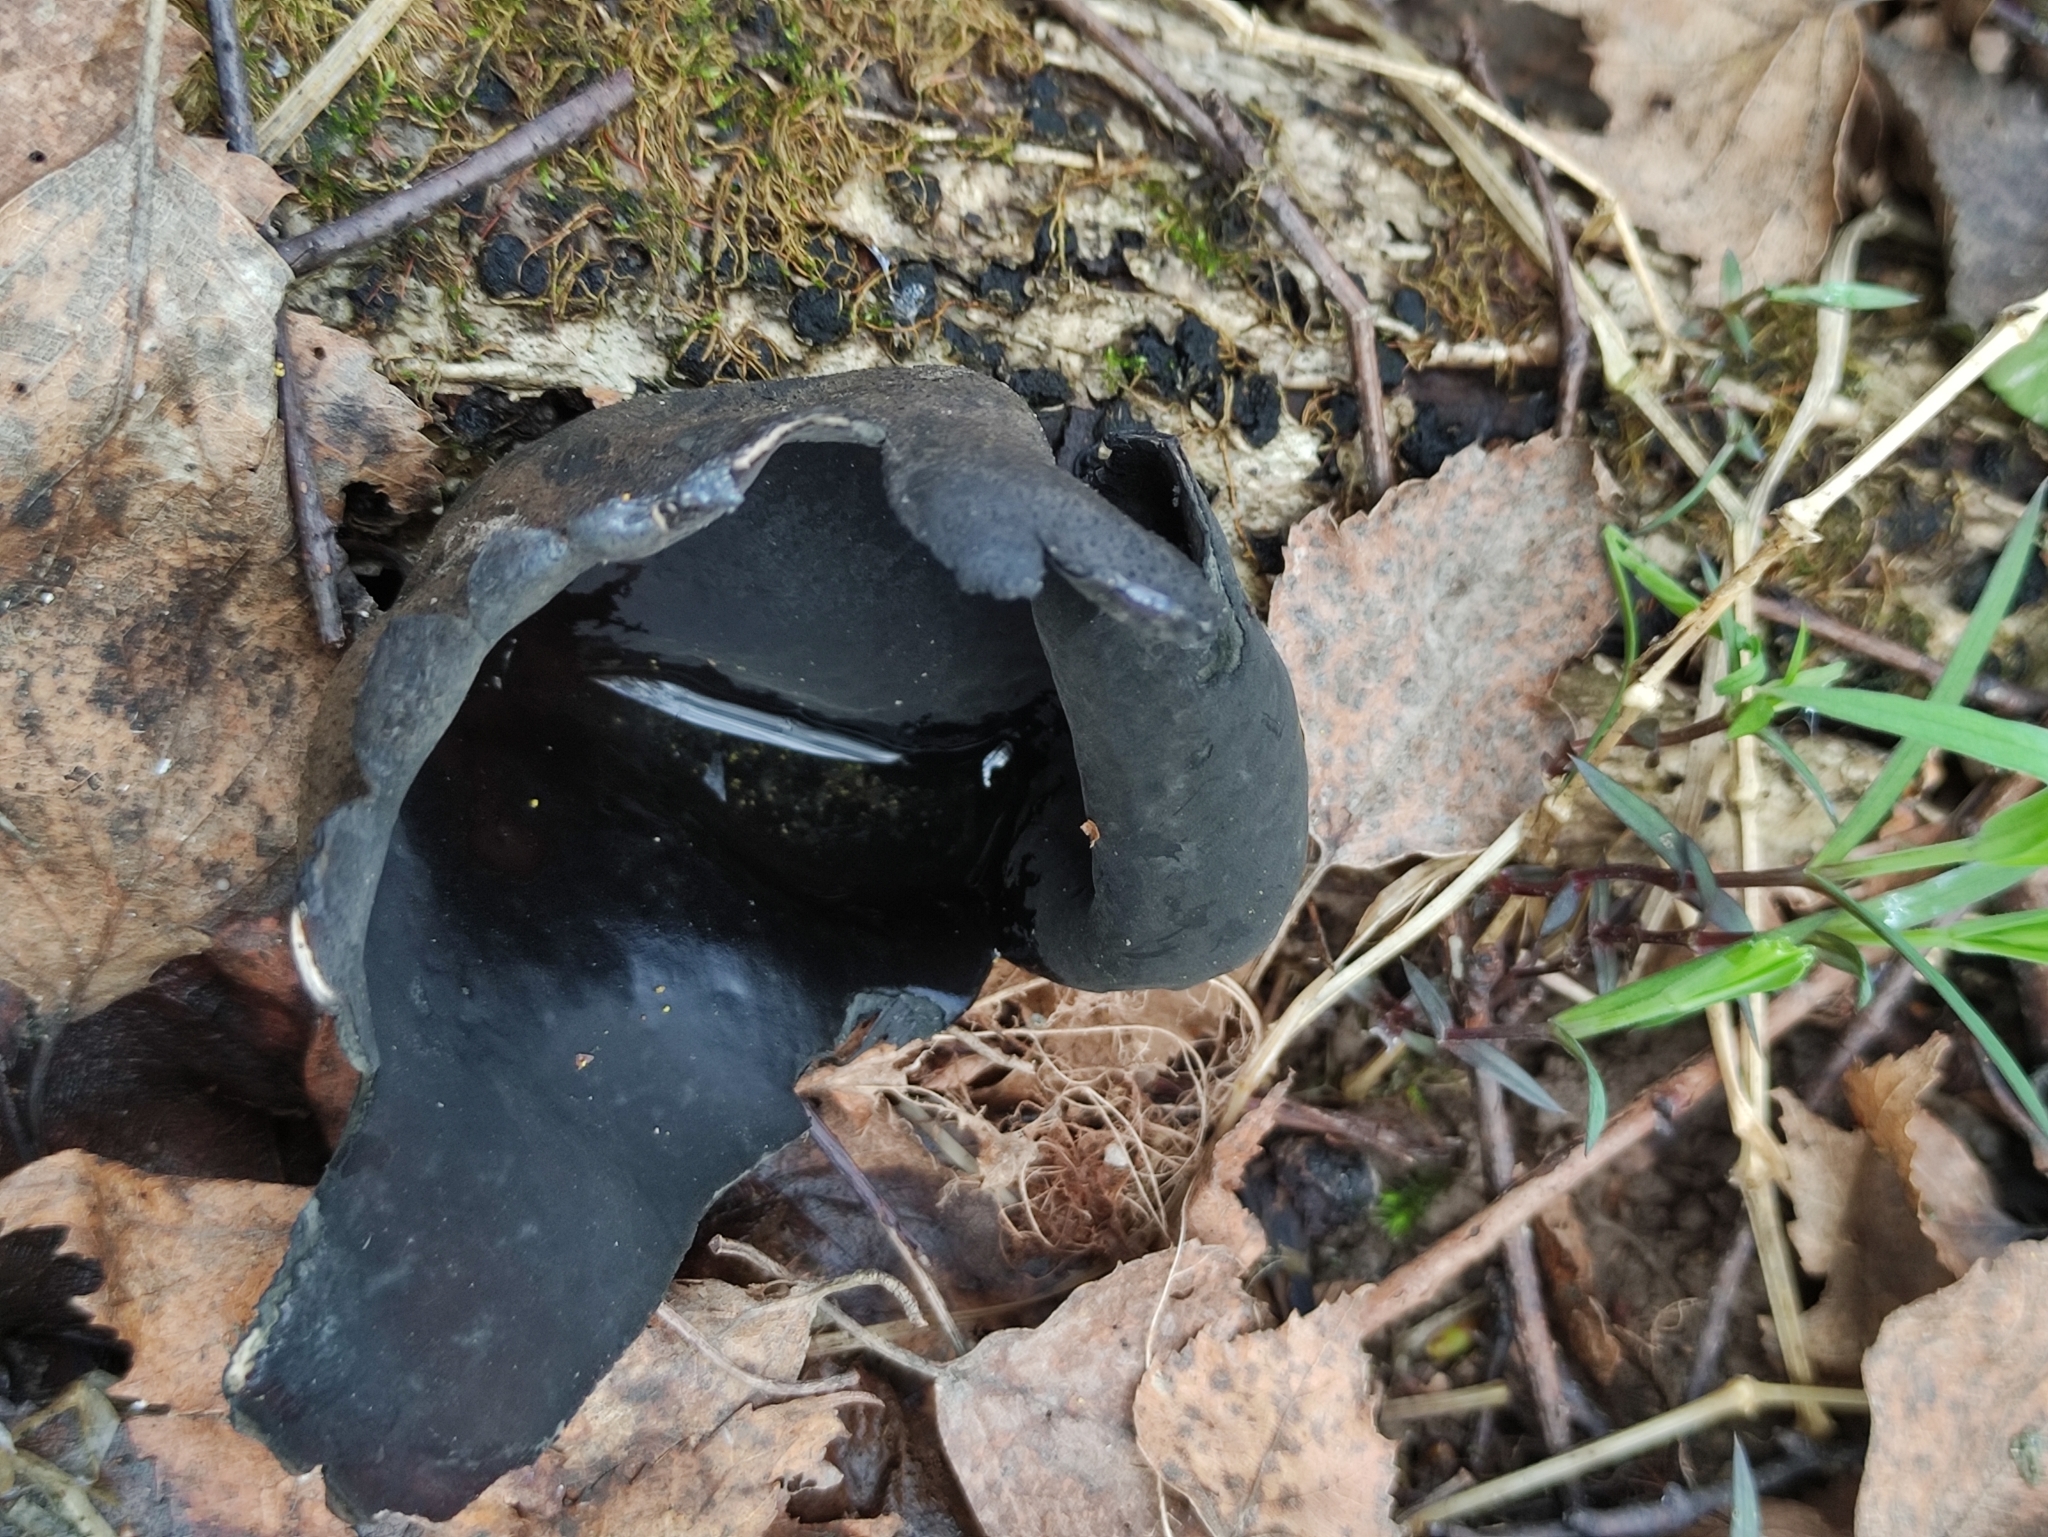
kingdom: Fungi
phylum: Ascomycota
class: Pezizomycetes
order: Pezizales
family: Sarcosomataceae
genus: Urnula
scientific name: Urnula craterium
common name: Devil's urn
